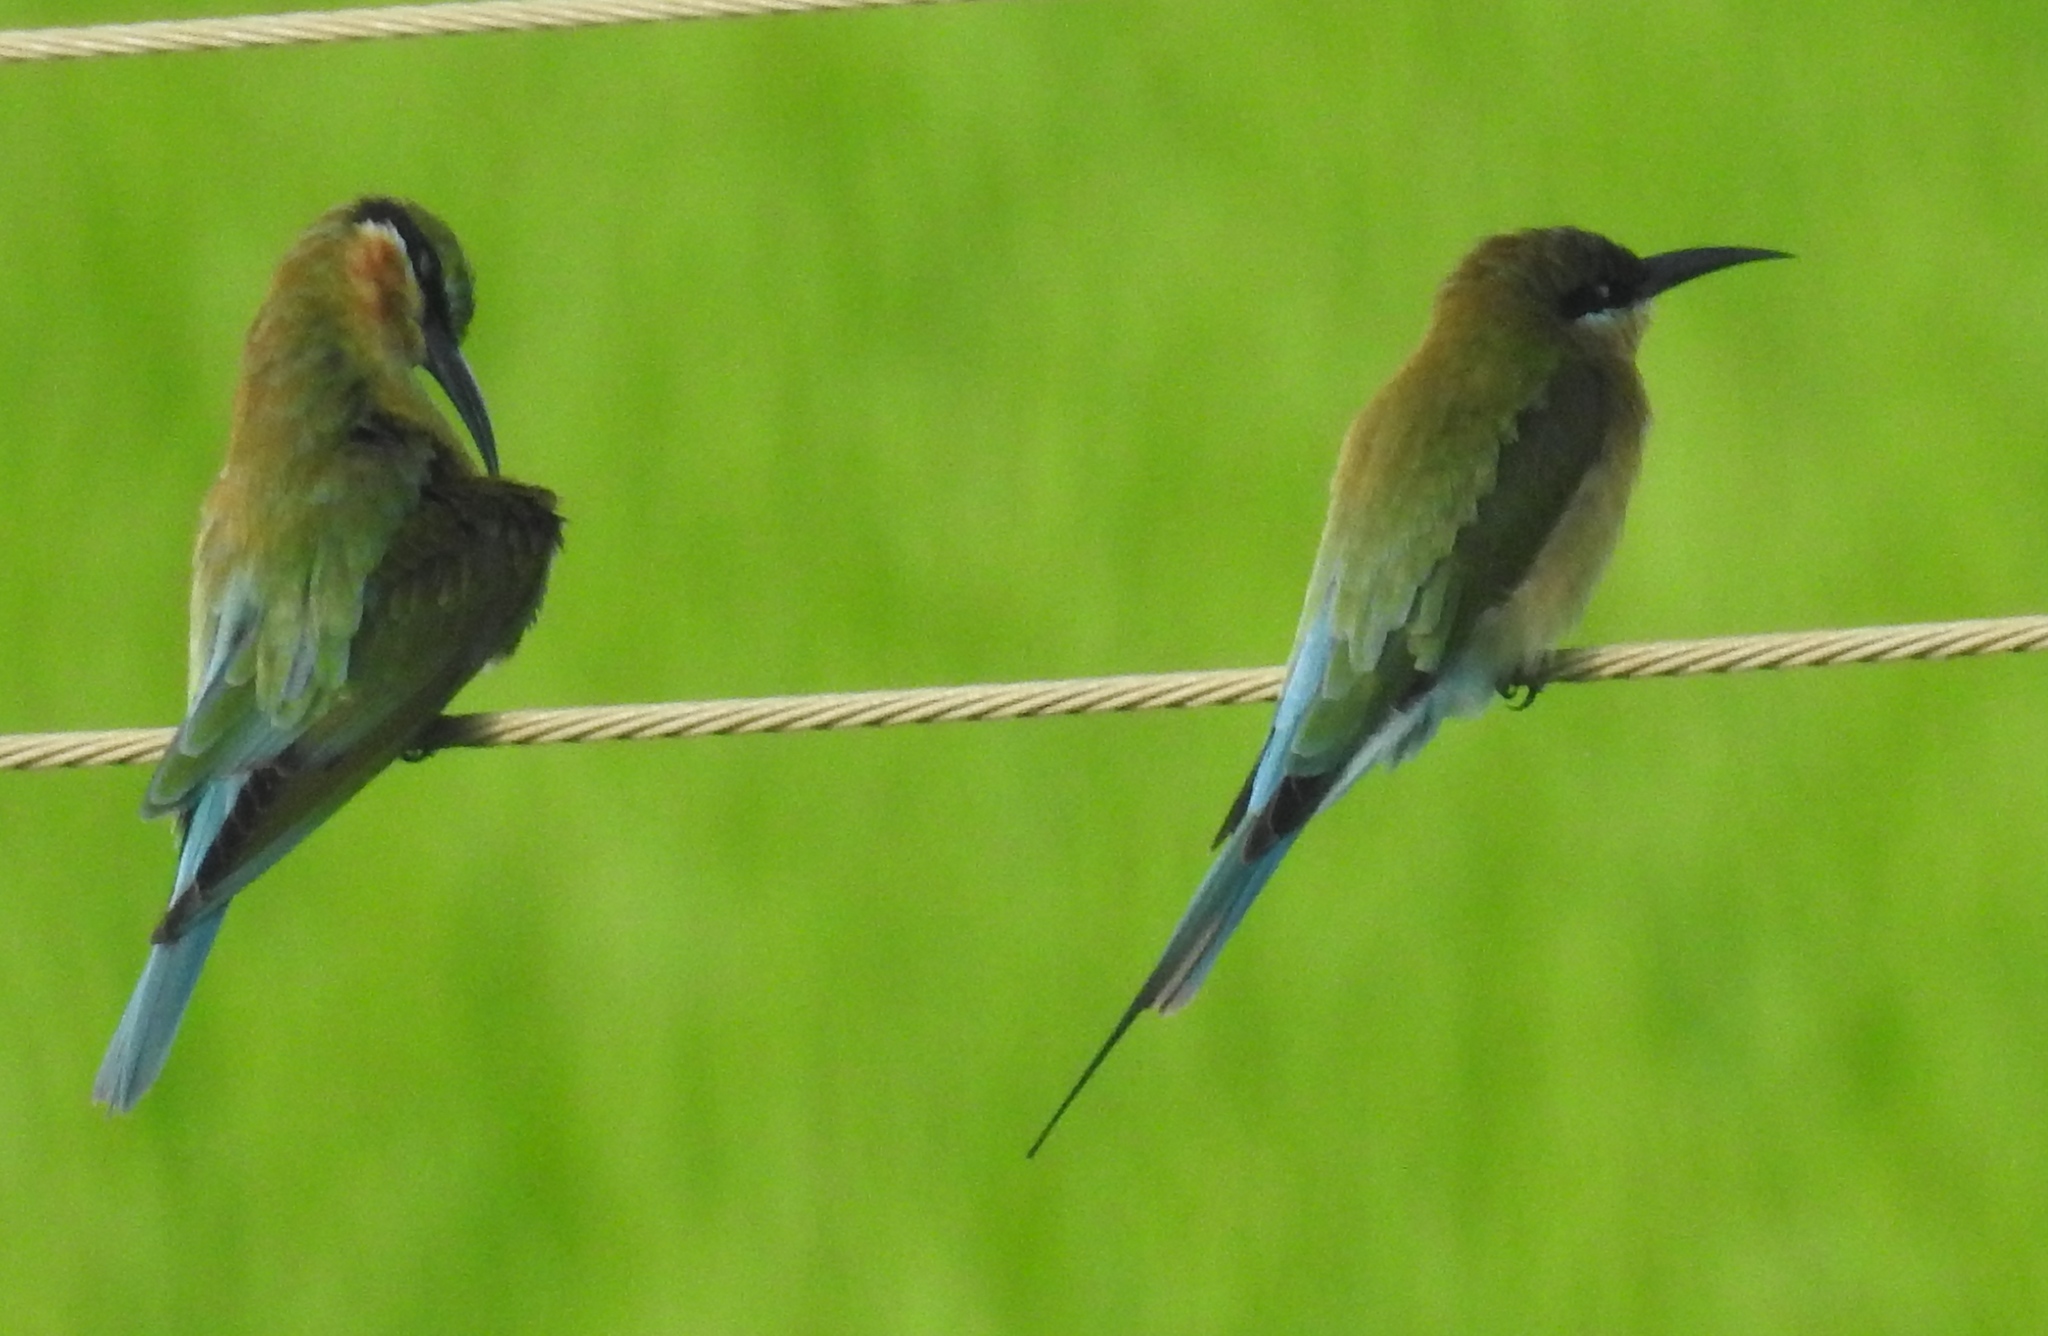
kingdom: Animalia
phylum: Chordata
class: Aves
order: Coraciiformes
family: Meropidae
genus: Merops
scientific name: Merops philippinus
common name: Blue-tailed bee-eater
